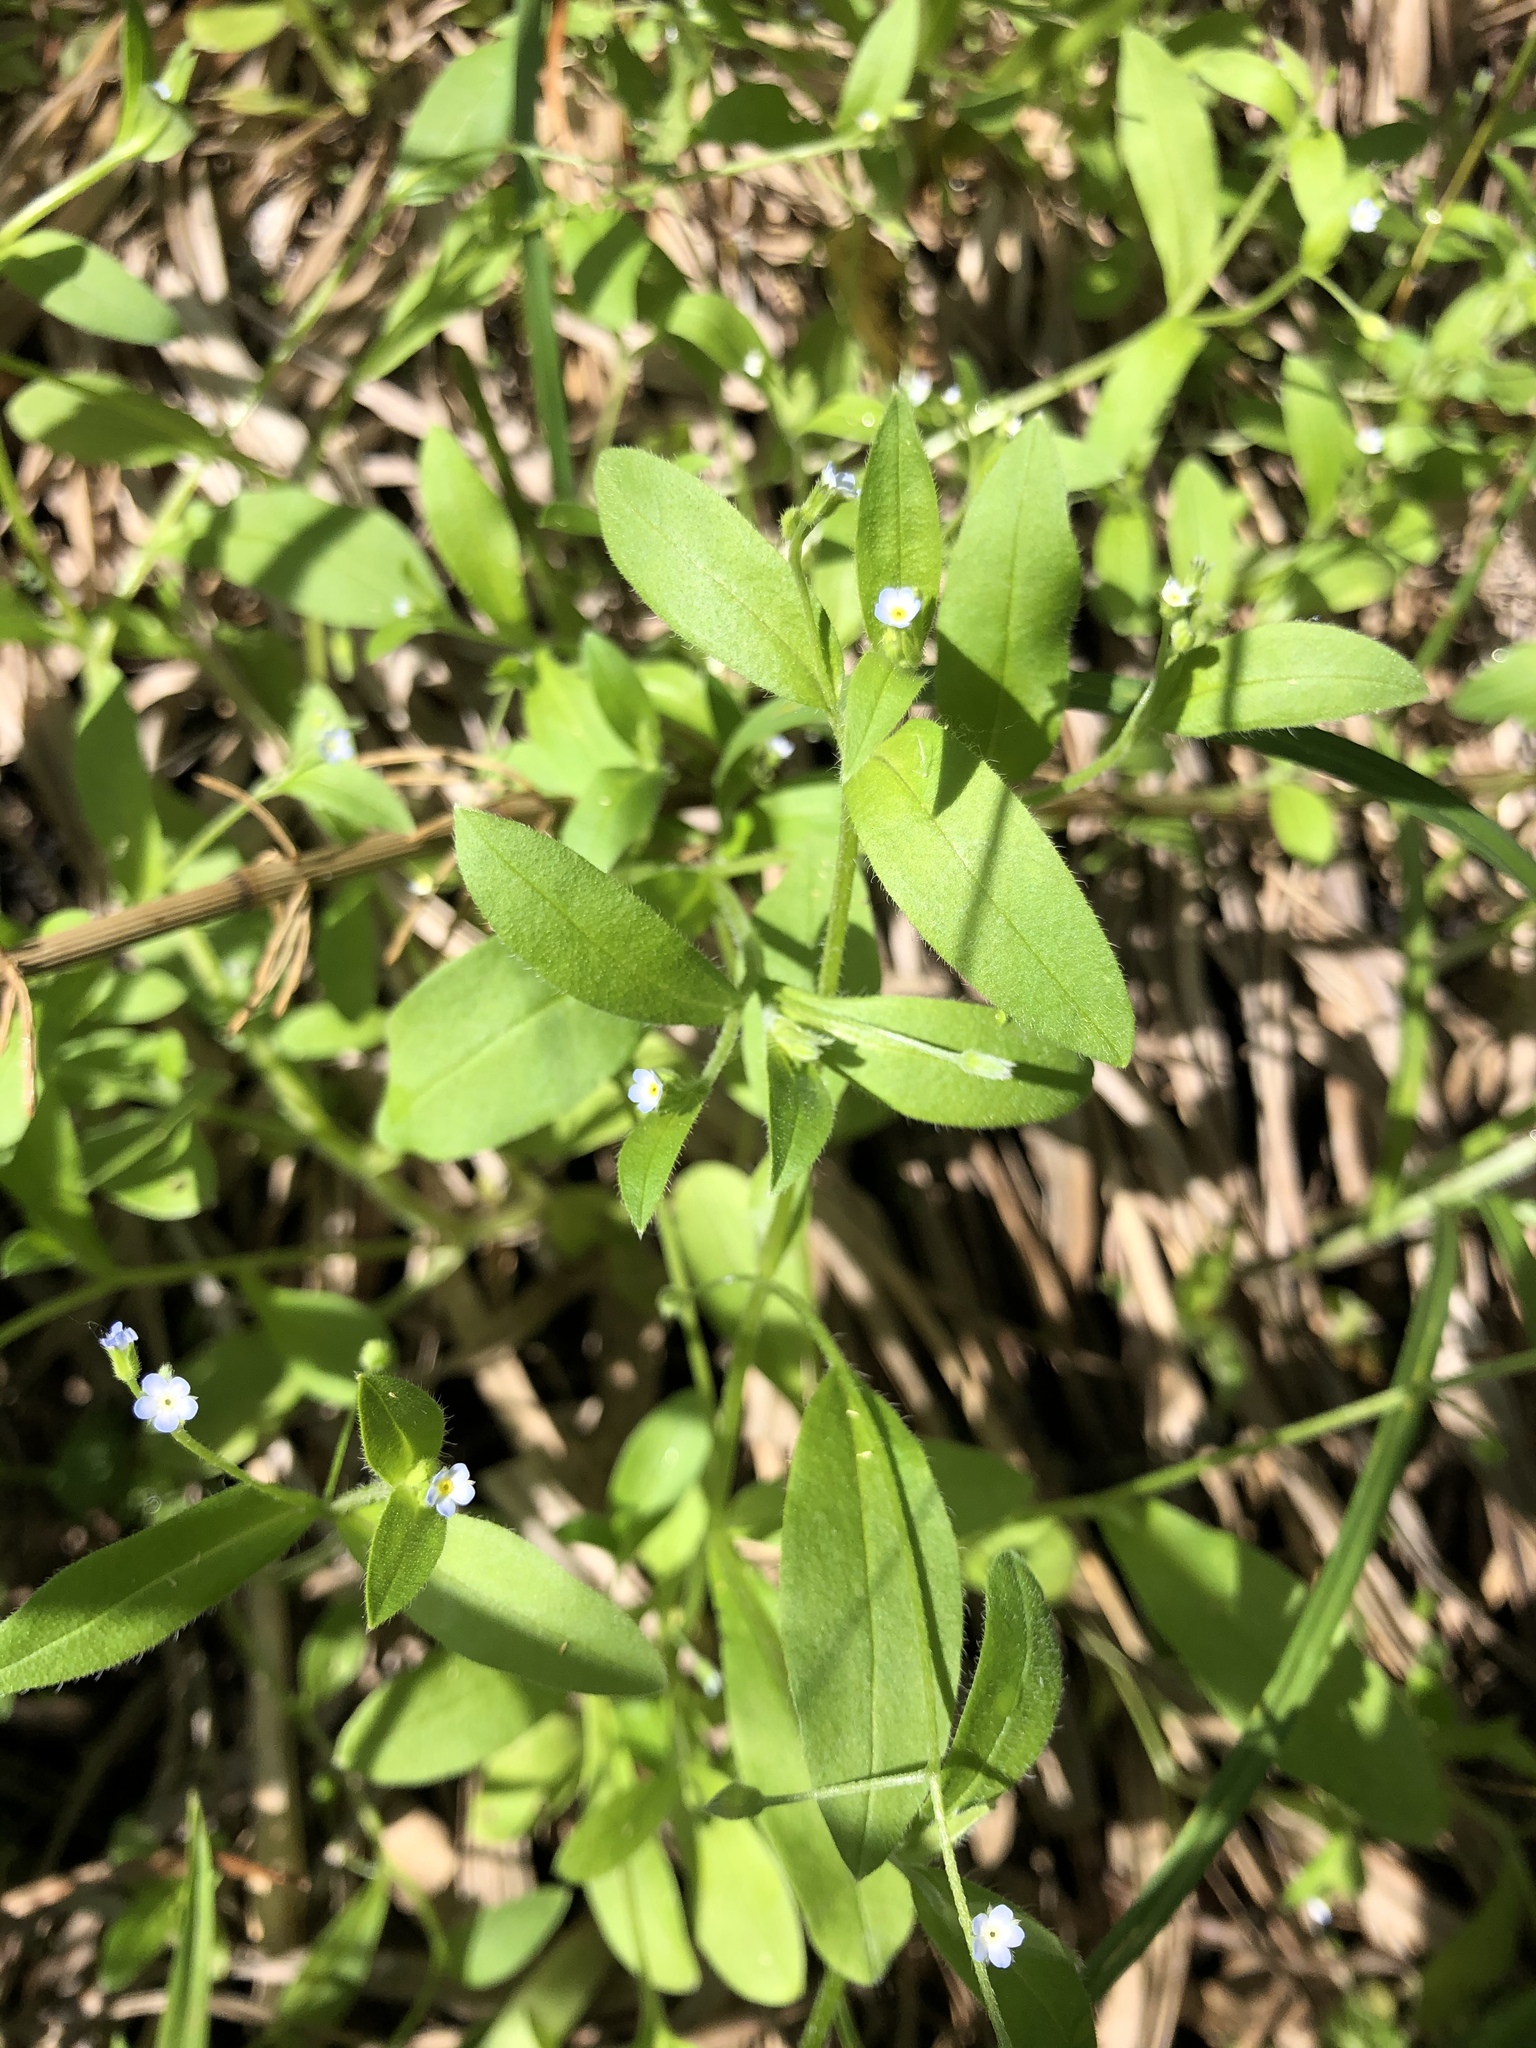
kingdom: Plantae
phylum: Tracheophyta
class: Magnoliopsida
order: Boraginales
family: Boraginaceae
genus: Myosotis
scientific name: Myosotis sparsiflora
